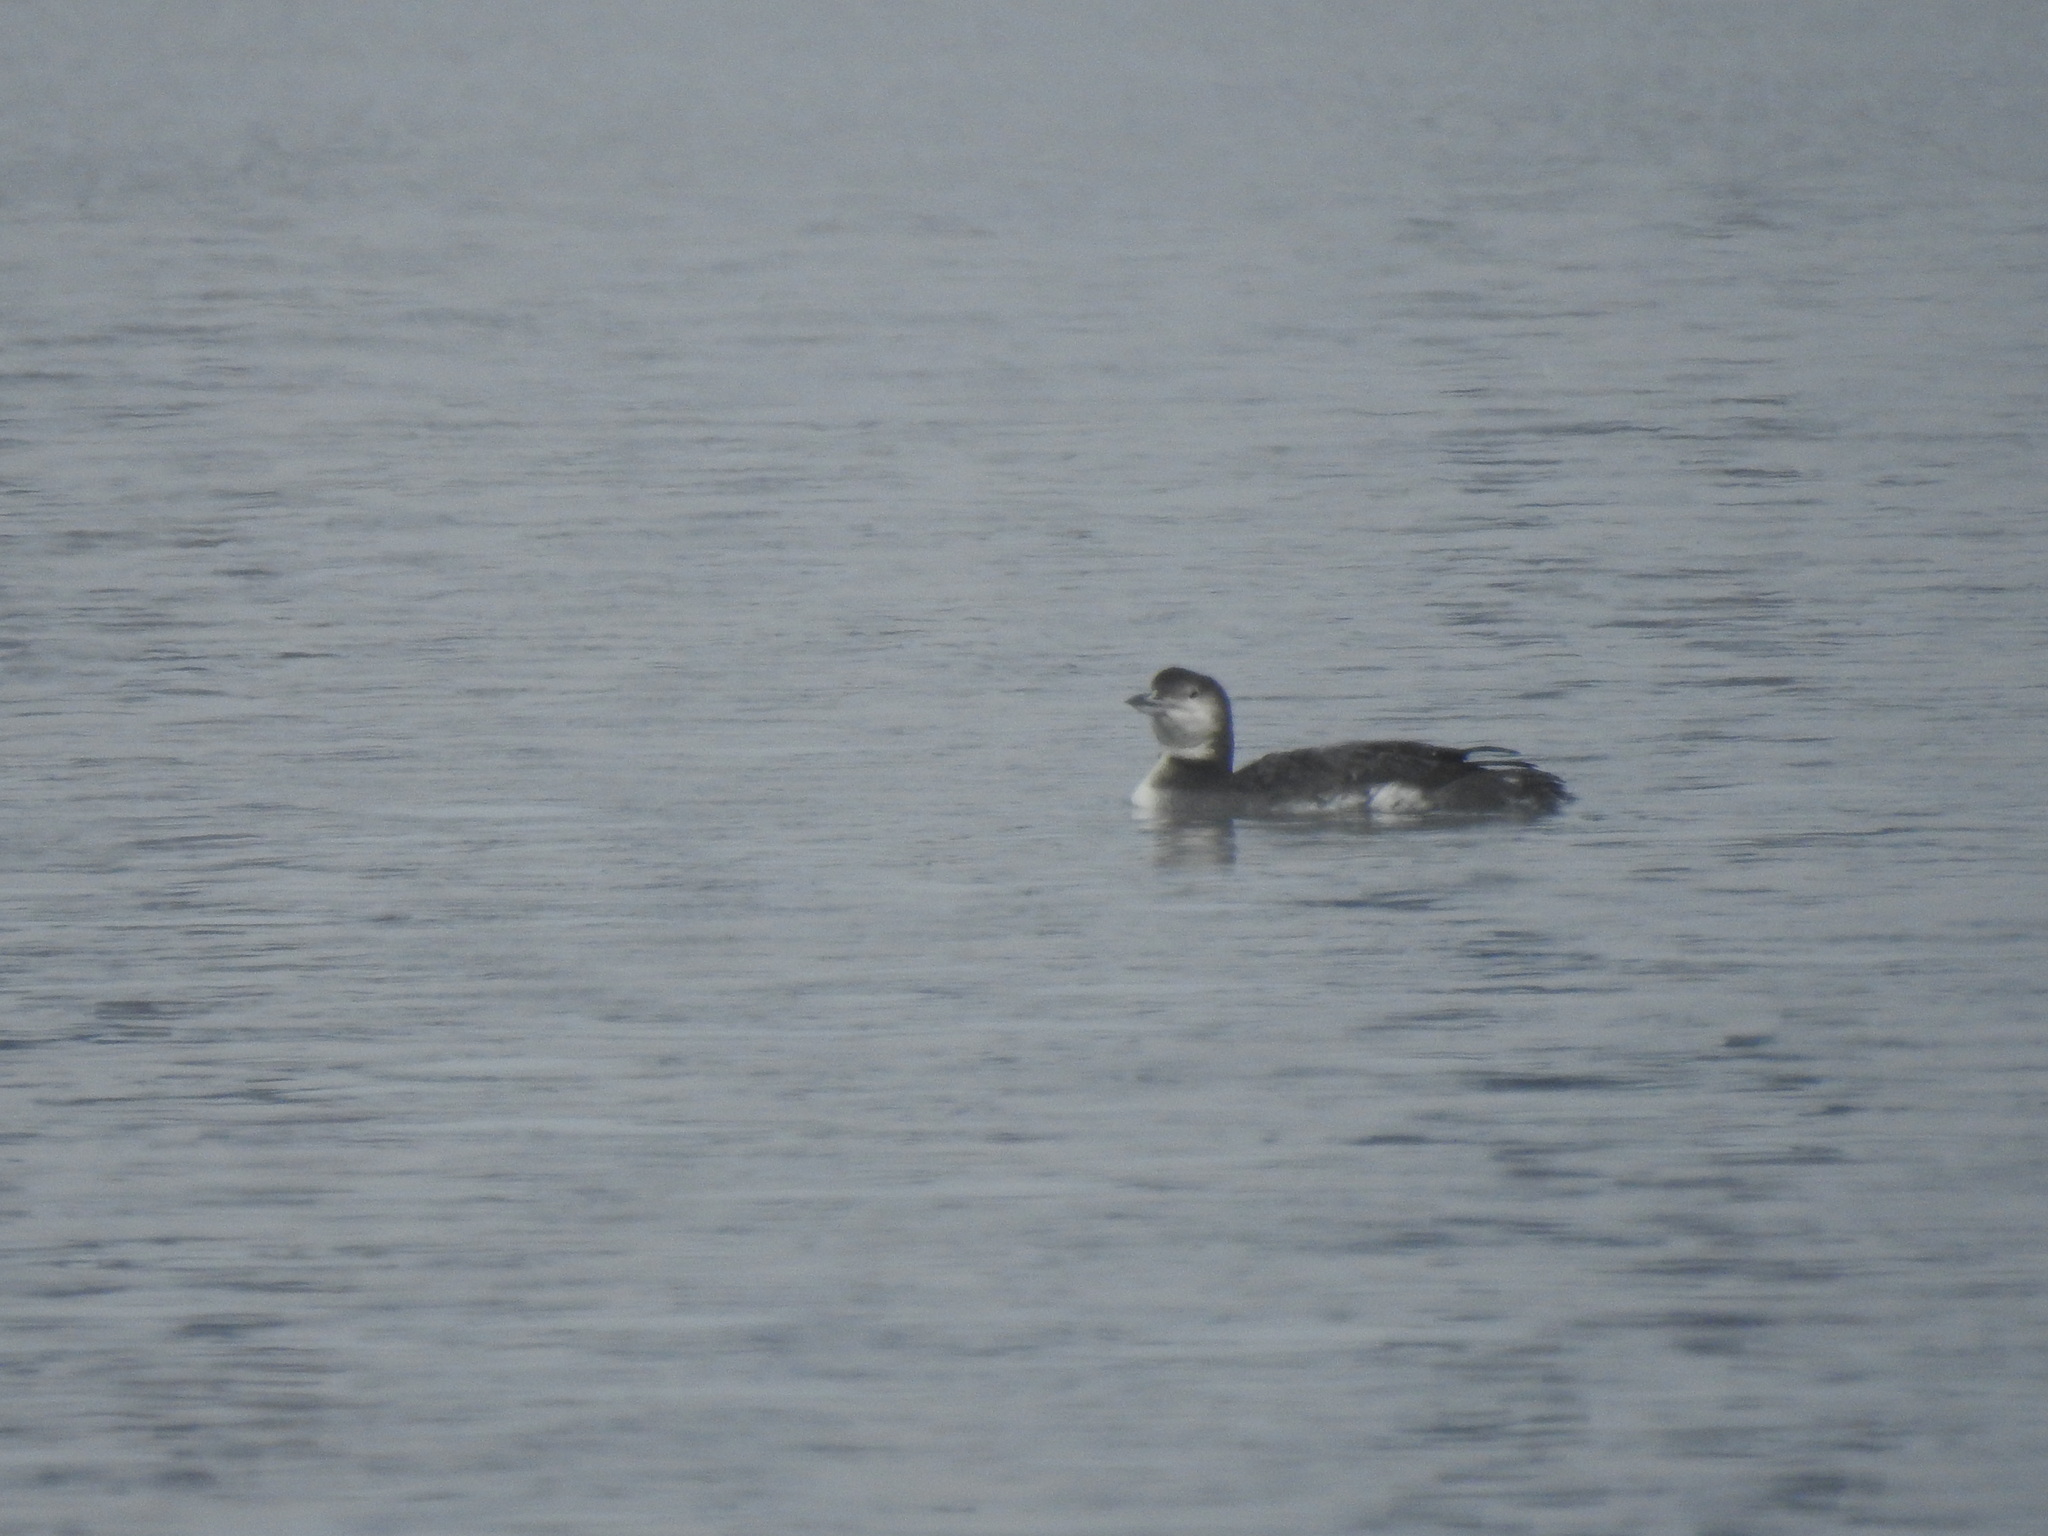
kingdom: Animalia
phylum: Chordata
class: Aves
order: Gaviiformes
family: Gaviidae
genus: Gavia
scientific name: Gavia immer
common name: Common loon
